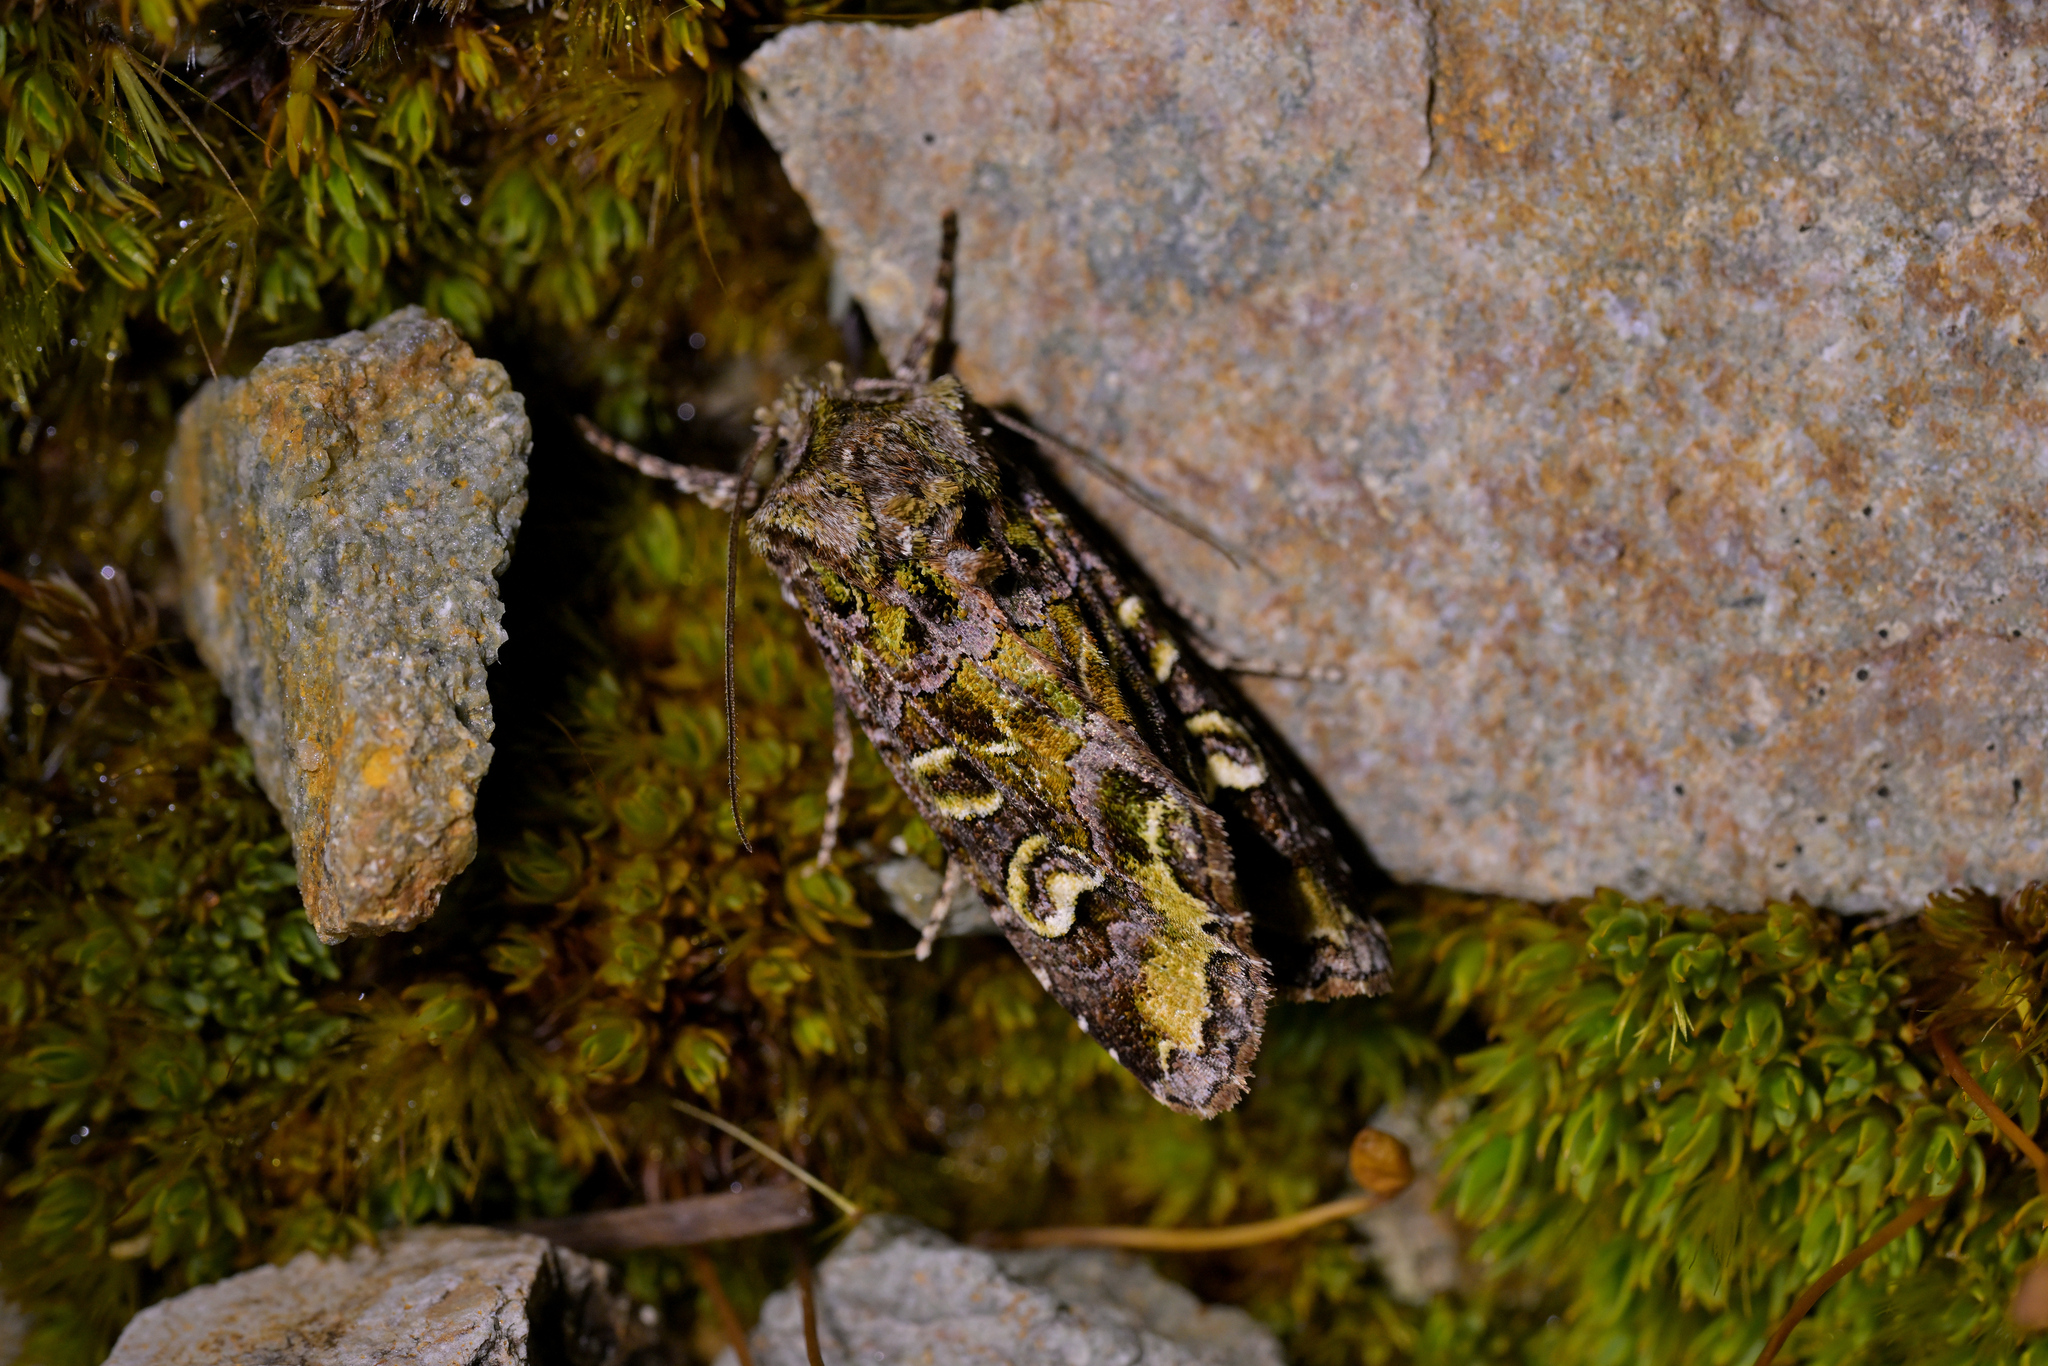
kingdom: Animalia
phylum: Arthropoda
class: Insecta
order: Lepidoptera
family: Noctuidae
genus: Ichneutica
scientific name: Ichneutica chlorodonta
